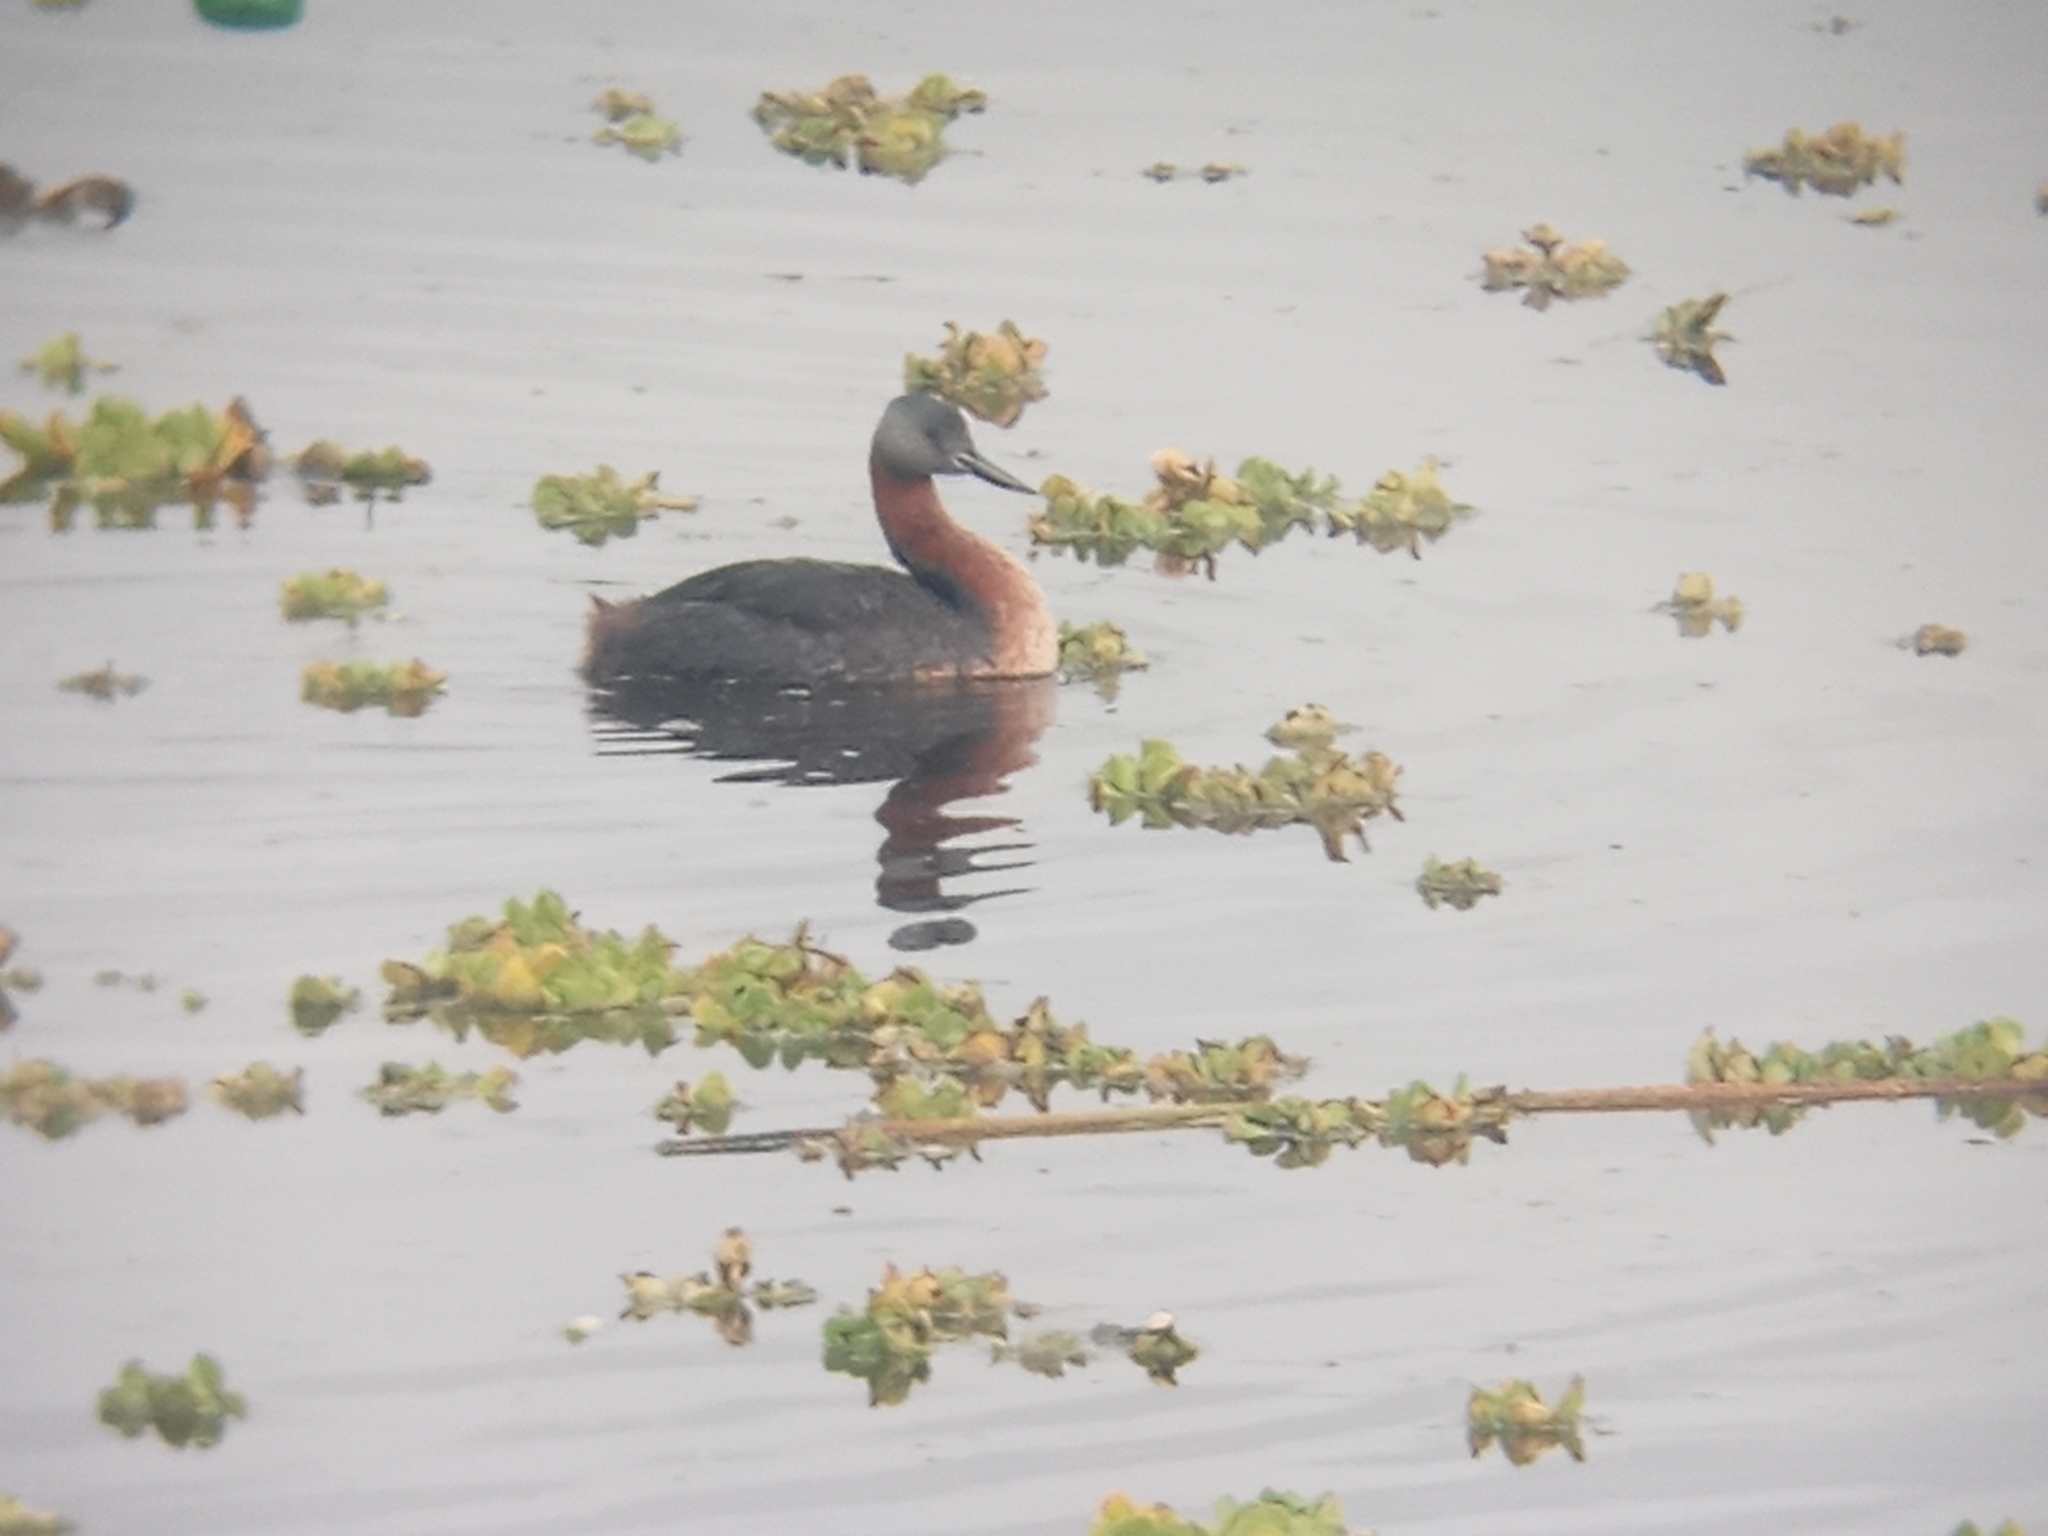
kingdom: Animalia
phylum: Chordata
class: Aves
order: Podicipediformes
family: Podicipedidae
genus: Podiceps
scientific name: Podiceps major
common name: Great grebe
